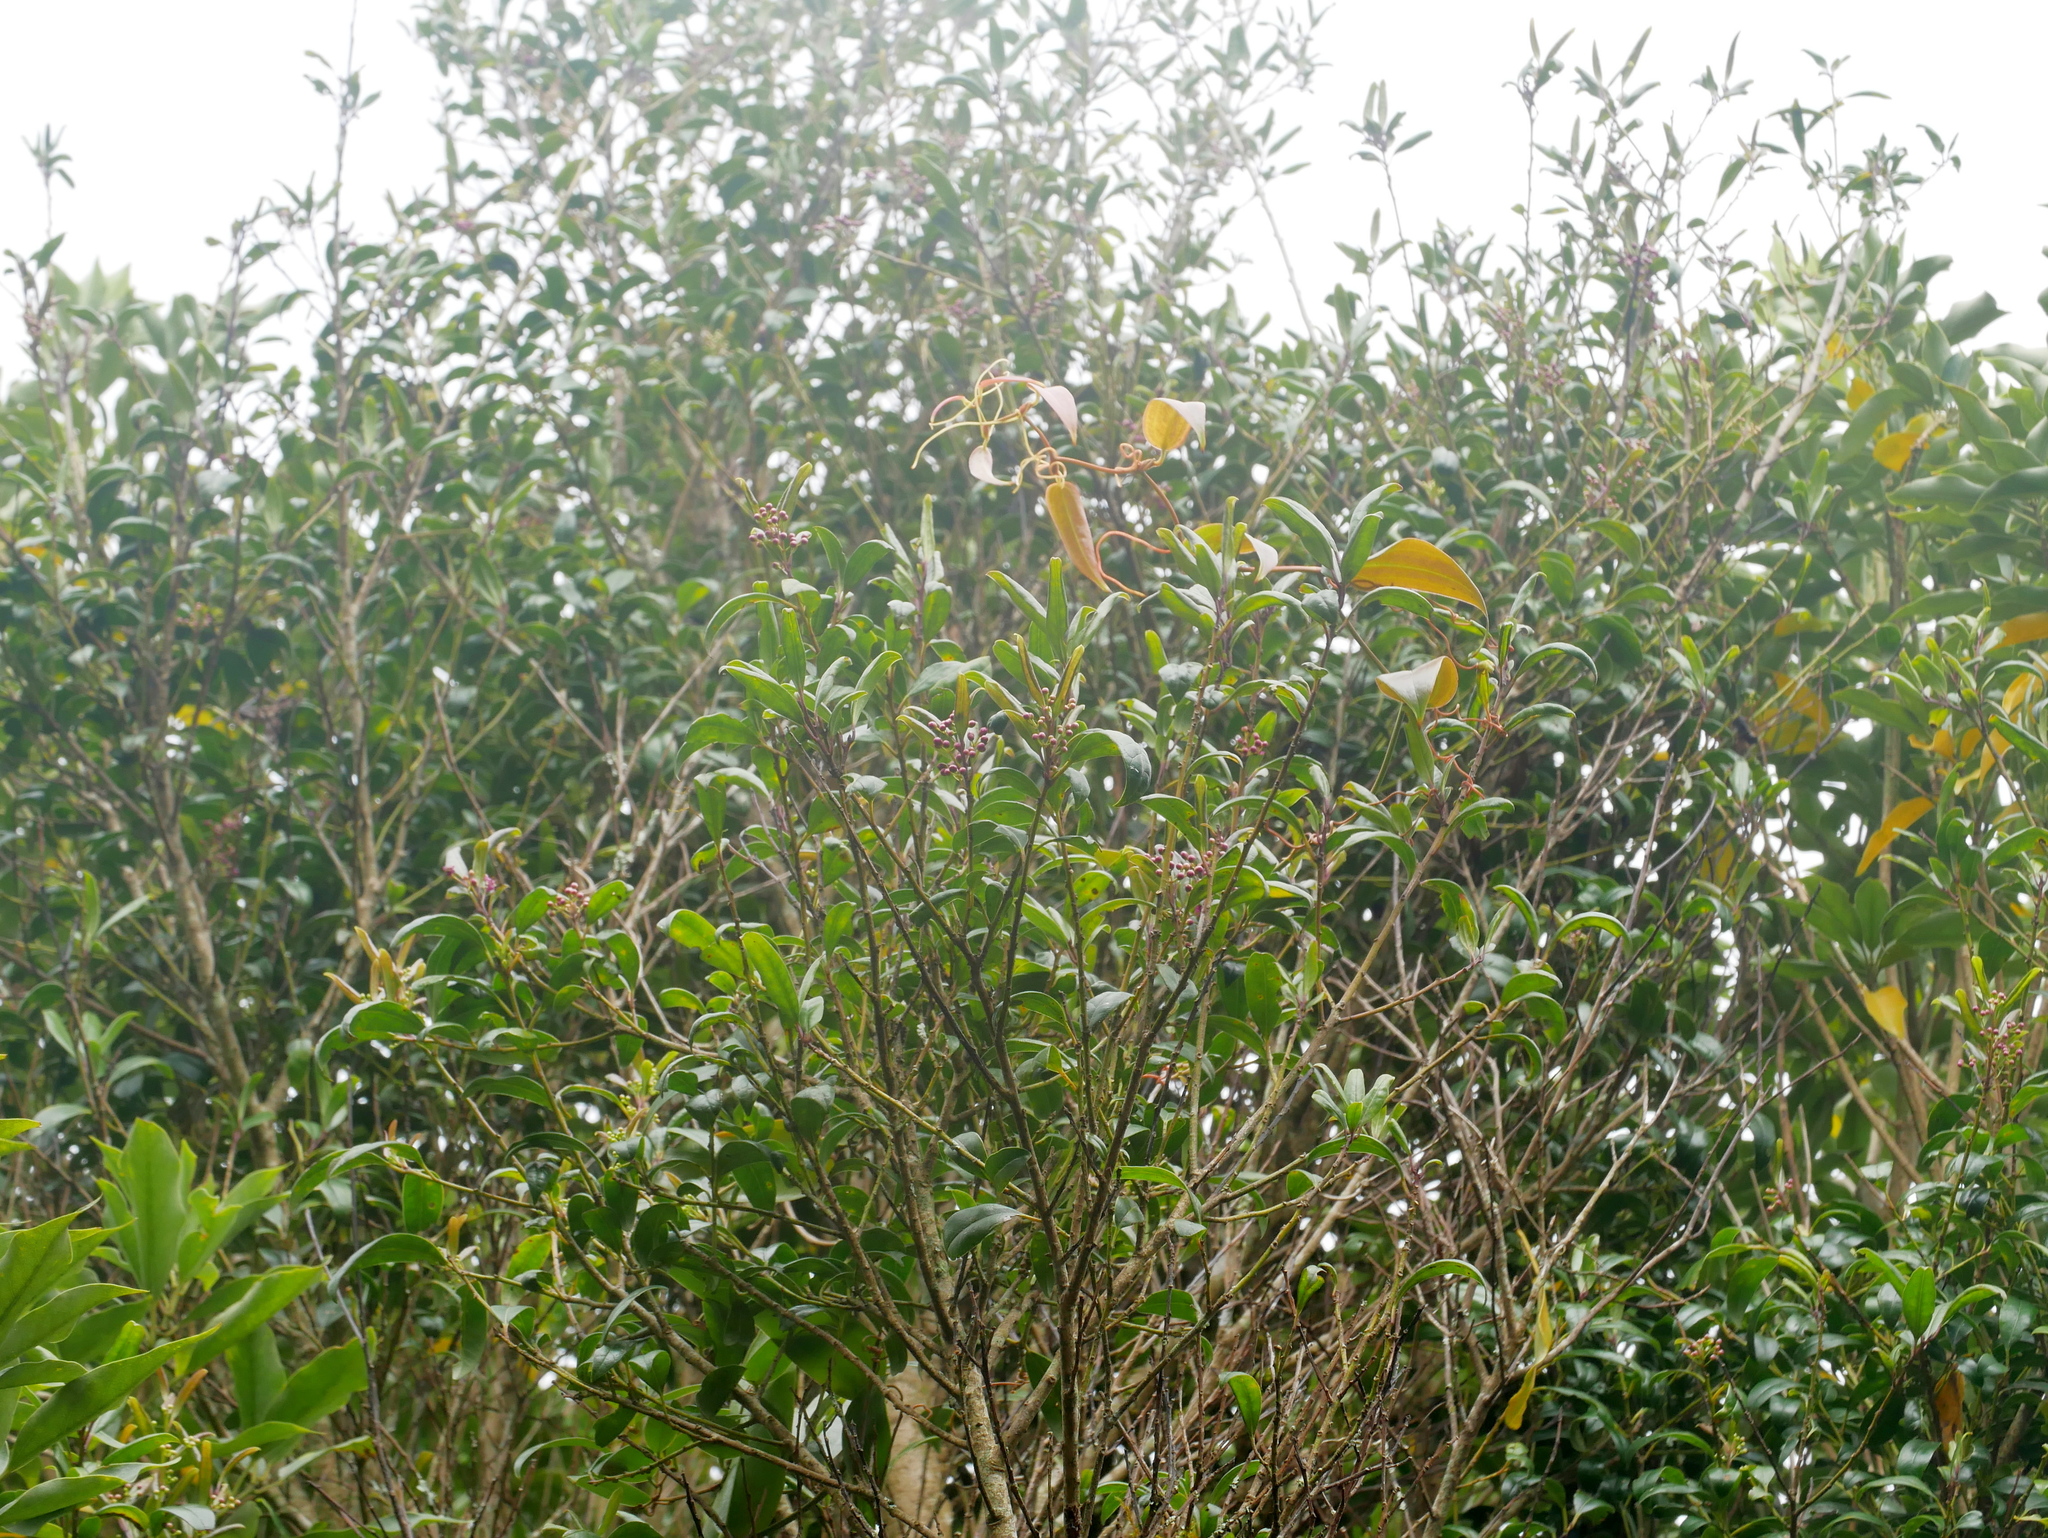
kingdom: Plantae
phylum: Tracheophyta
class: Magnoliopsida
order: Aquifoliales
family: Aquifoliaceae
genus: Ilex
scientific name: Ilex lonicerifolia
